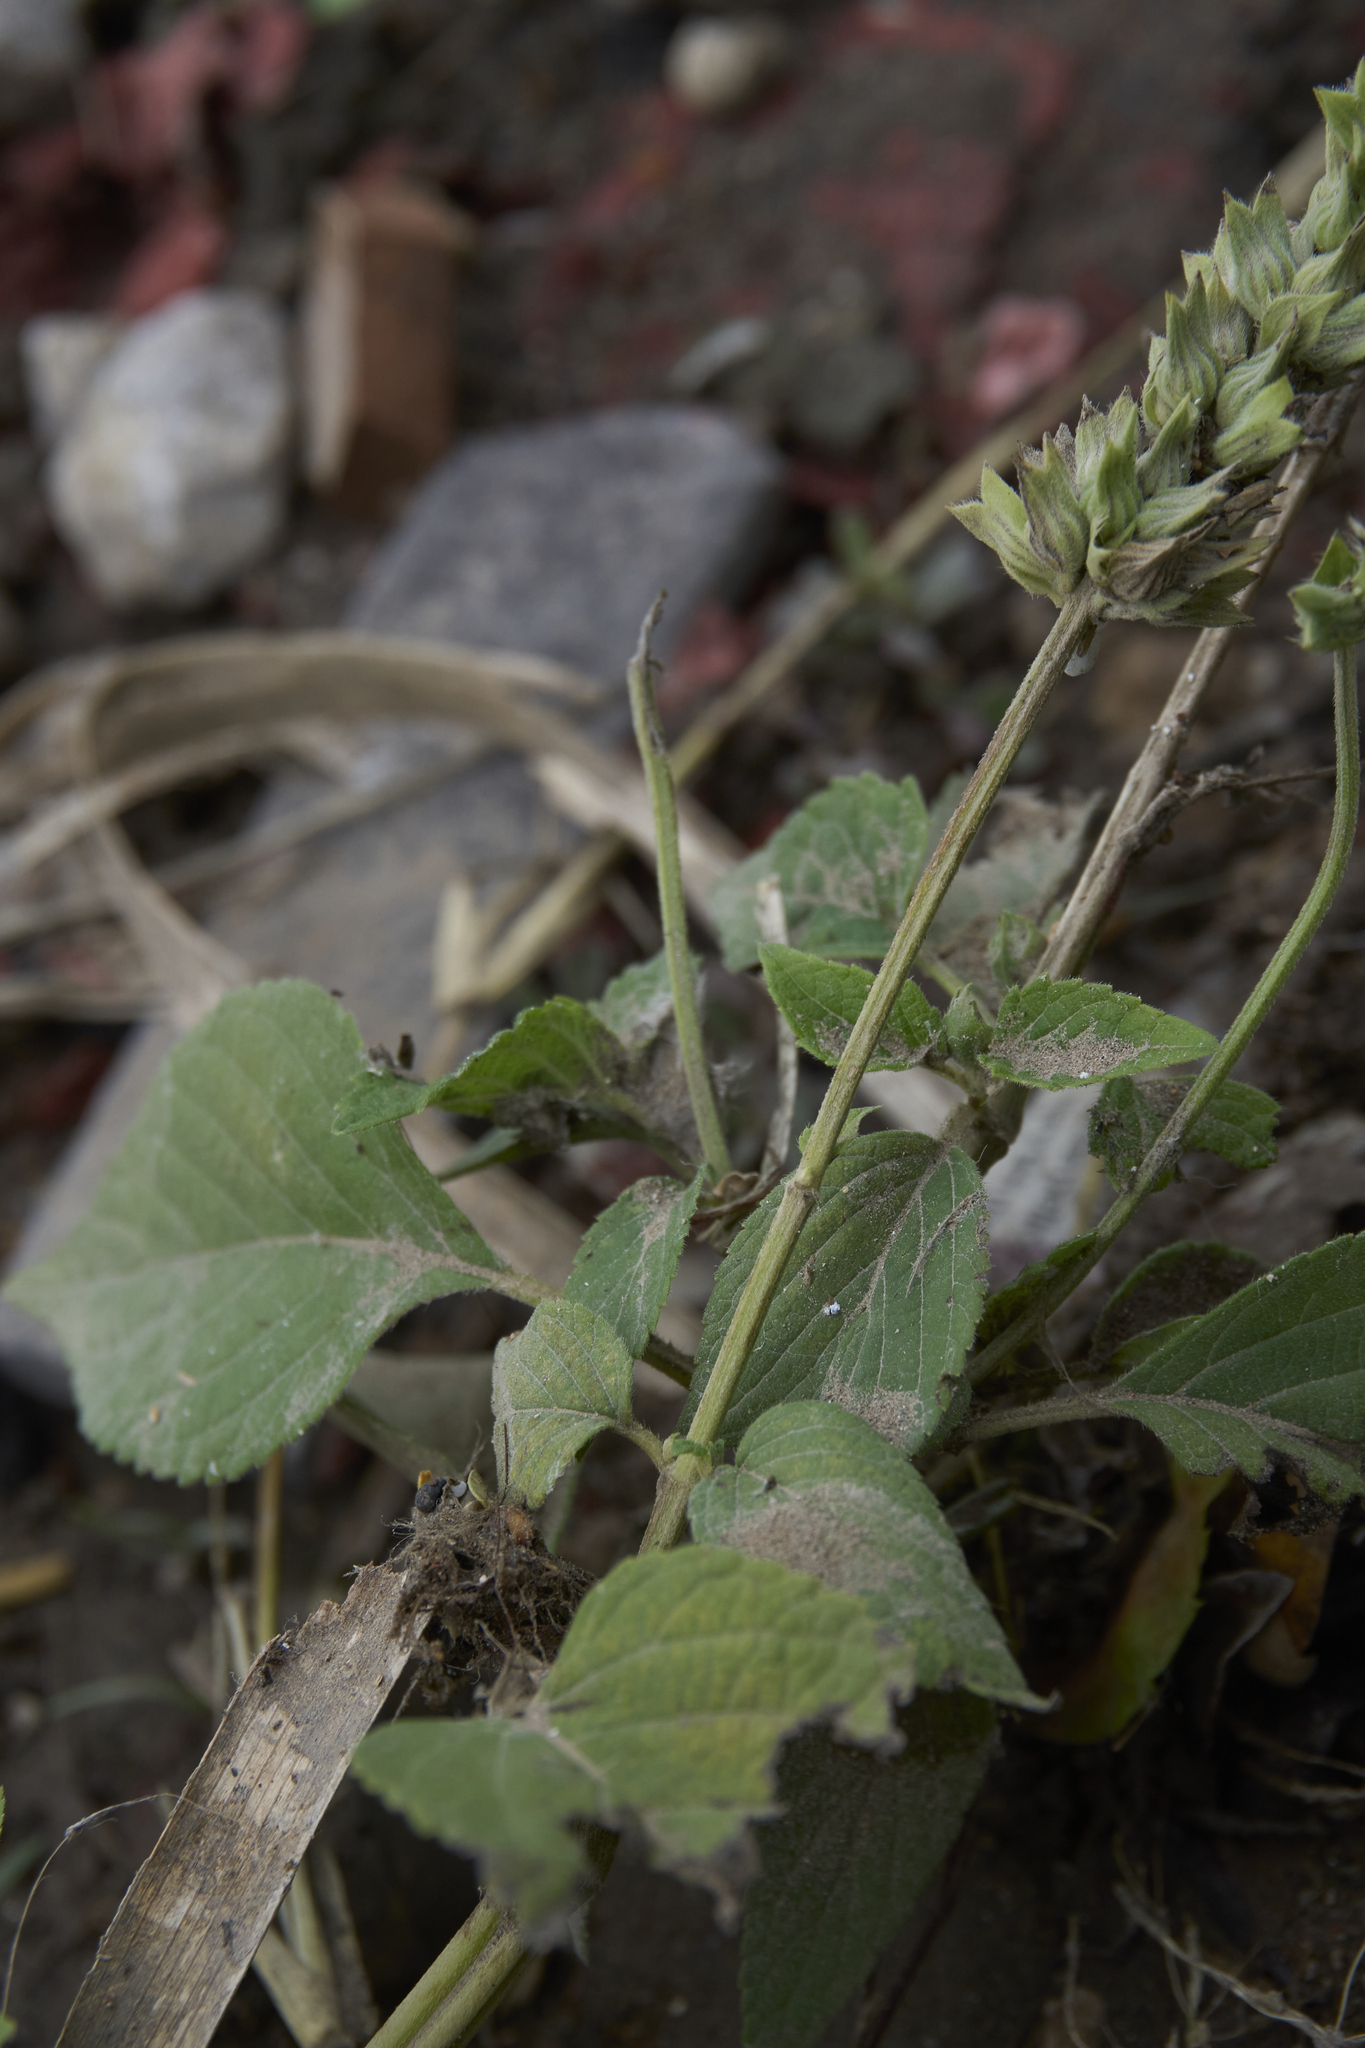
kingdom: Plantae
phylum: Tracheophyta
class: Magnoliopsida
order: Lamiales
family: Lamiaceae
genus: Salvia
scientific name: Salvia hispanica
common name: Chia
